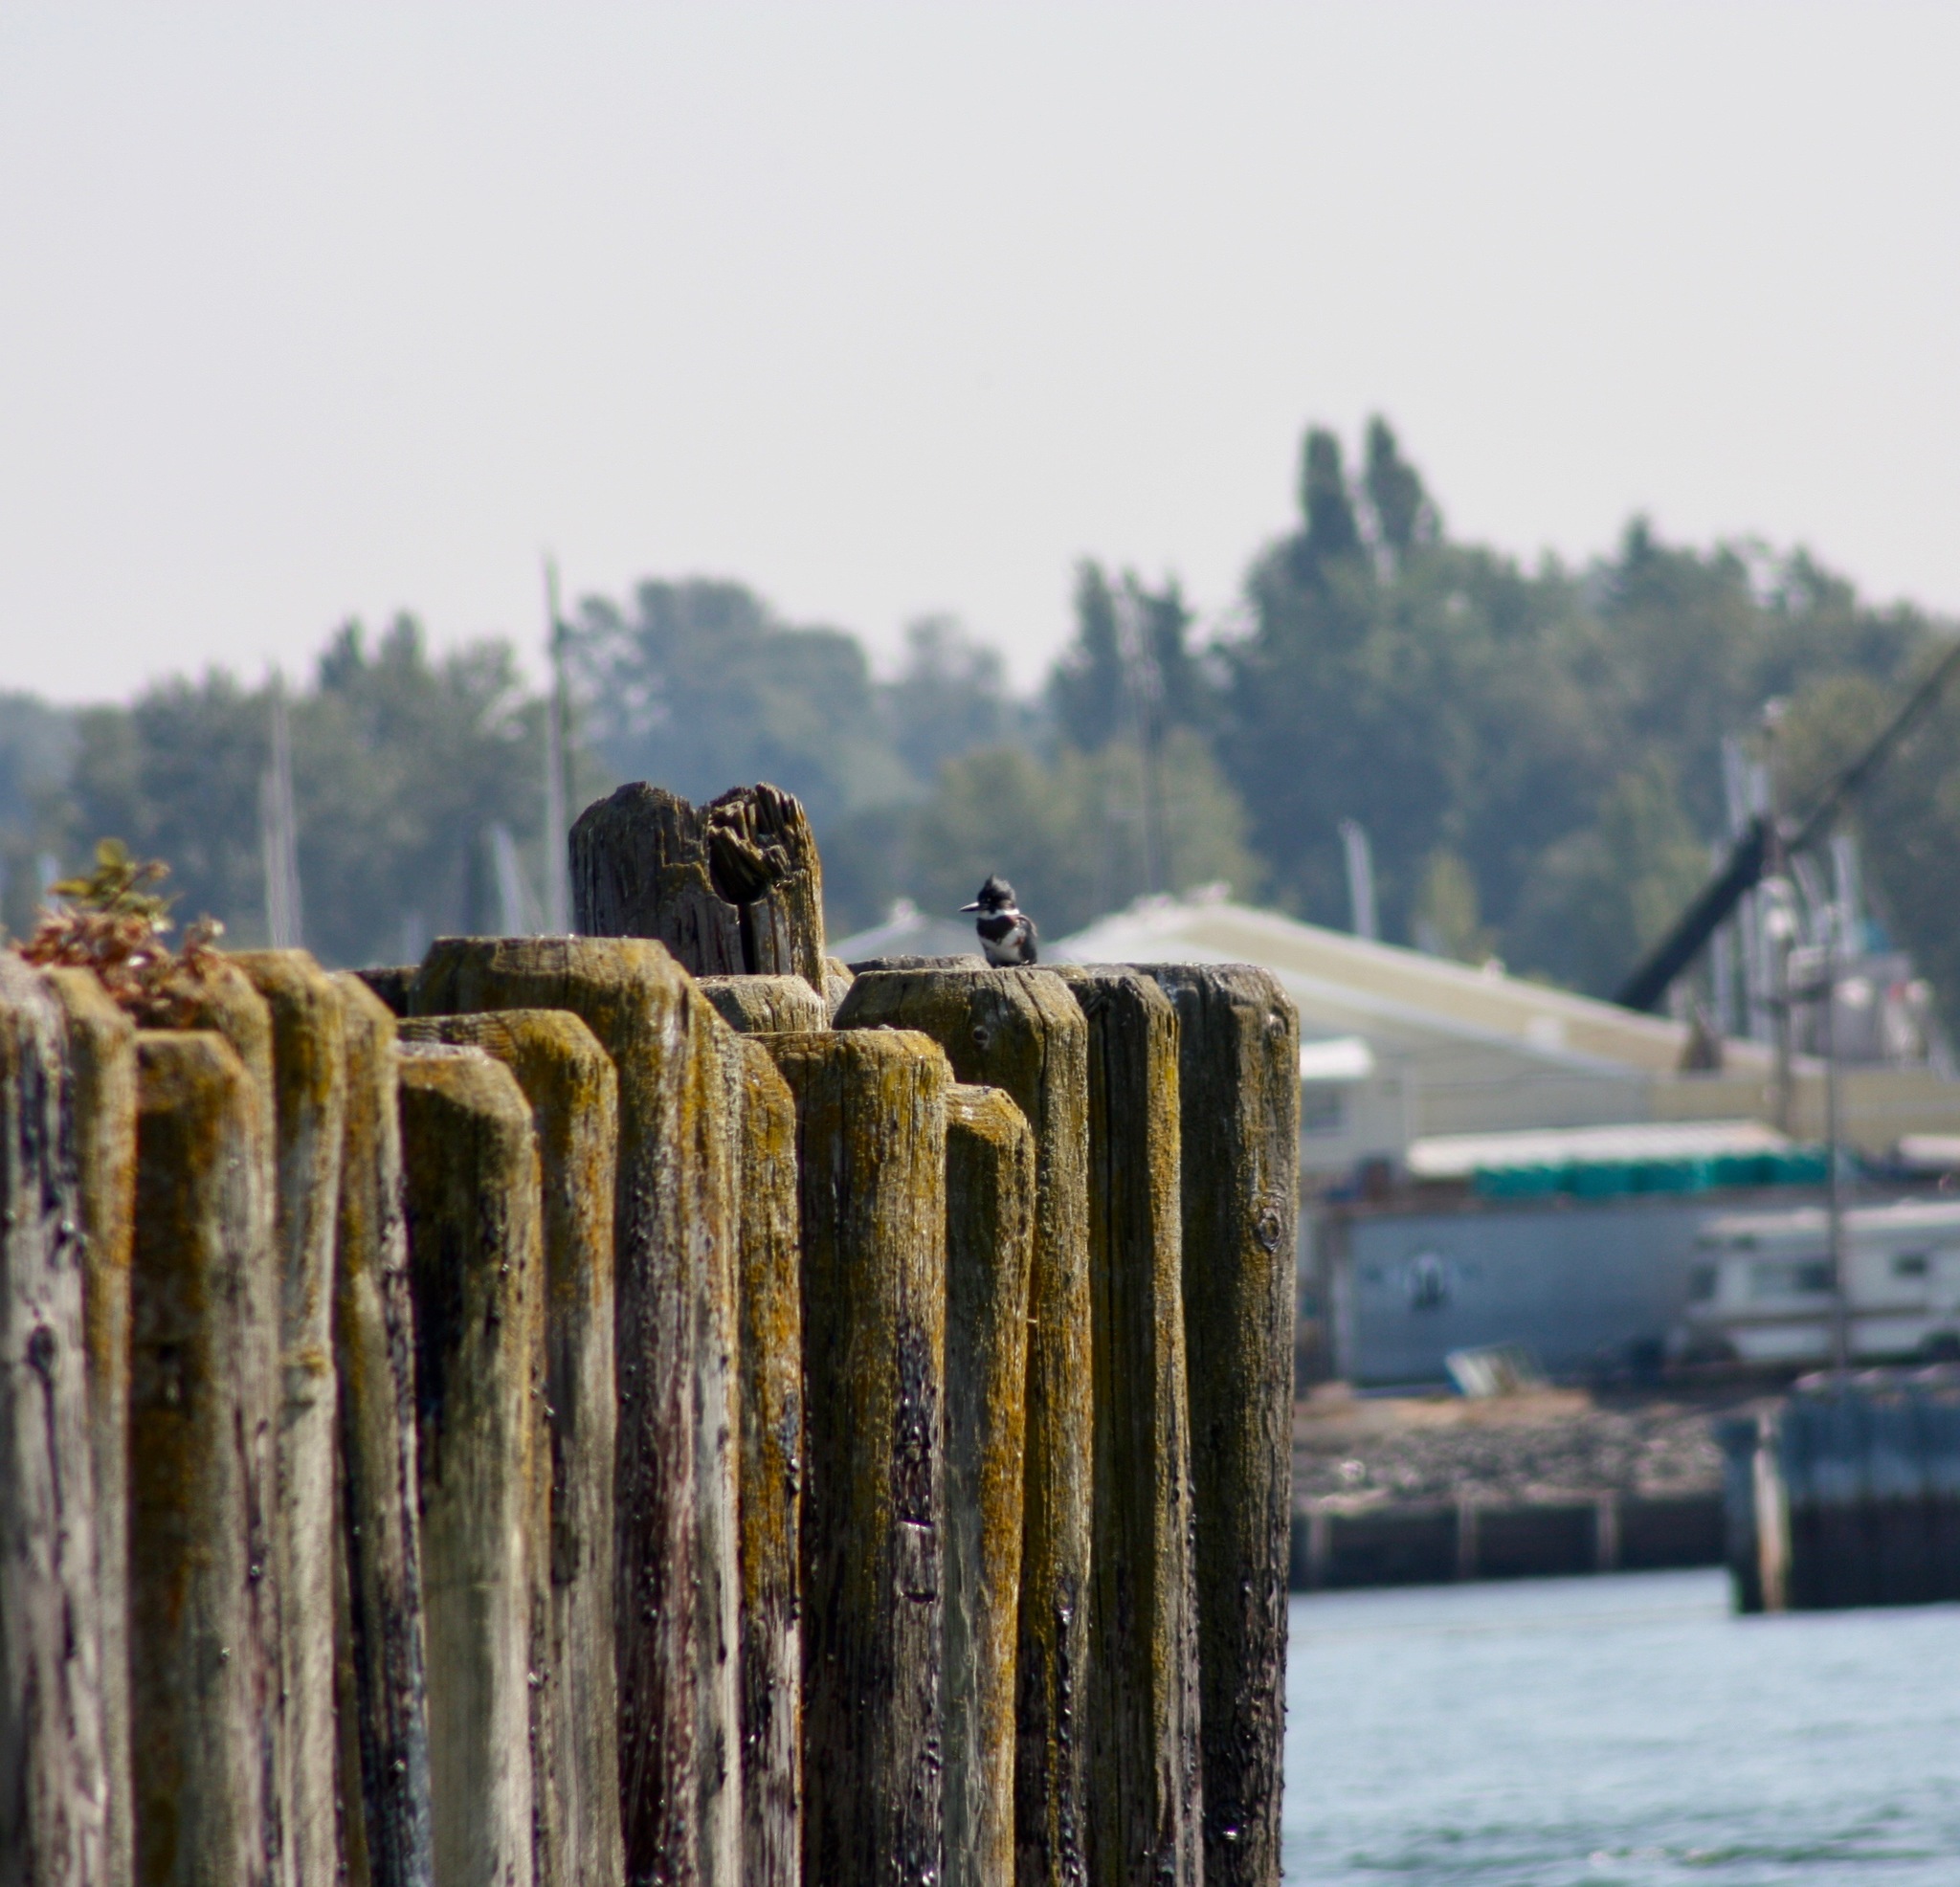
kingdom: Animalia
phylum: Chordata
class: Aves
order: Coraciiformes
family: Alcedinidae
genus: Megaceryle
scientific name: Megaceryle alcyon
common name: Belted kingfisher
